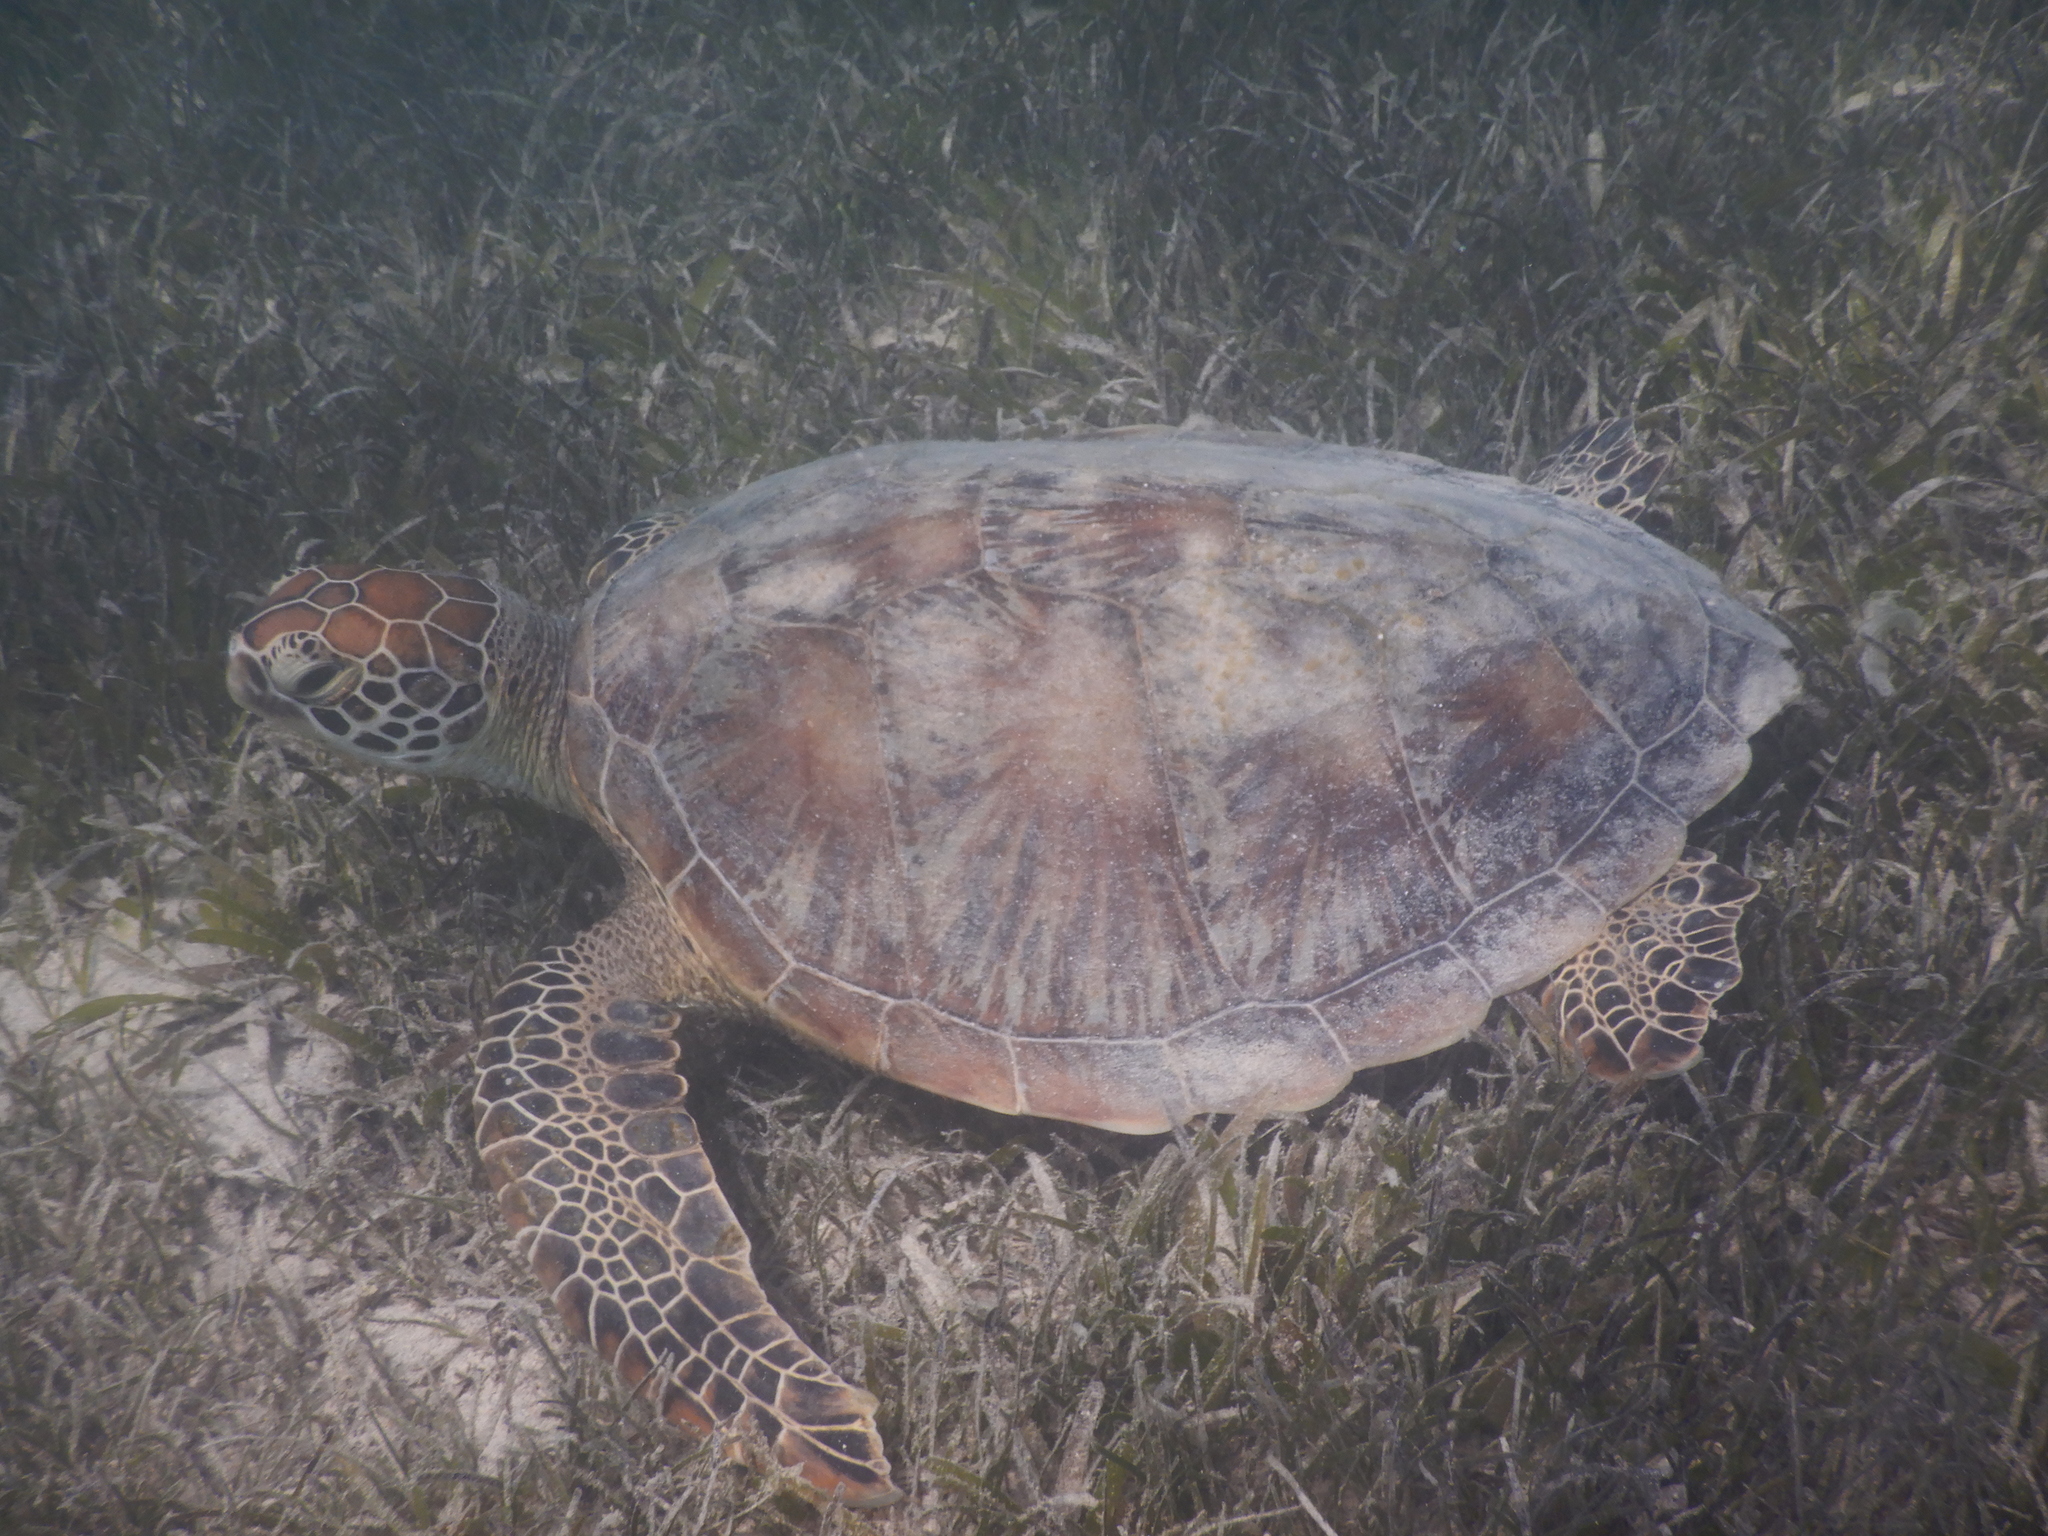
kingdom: Animalia
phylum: Chordata
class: Testudines
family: Cheloniidae
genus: Chelonia
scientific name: Chelonia mydas
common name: Green turtle
